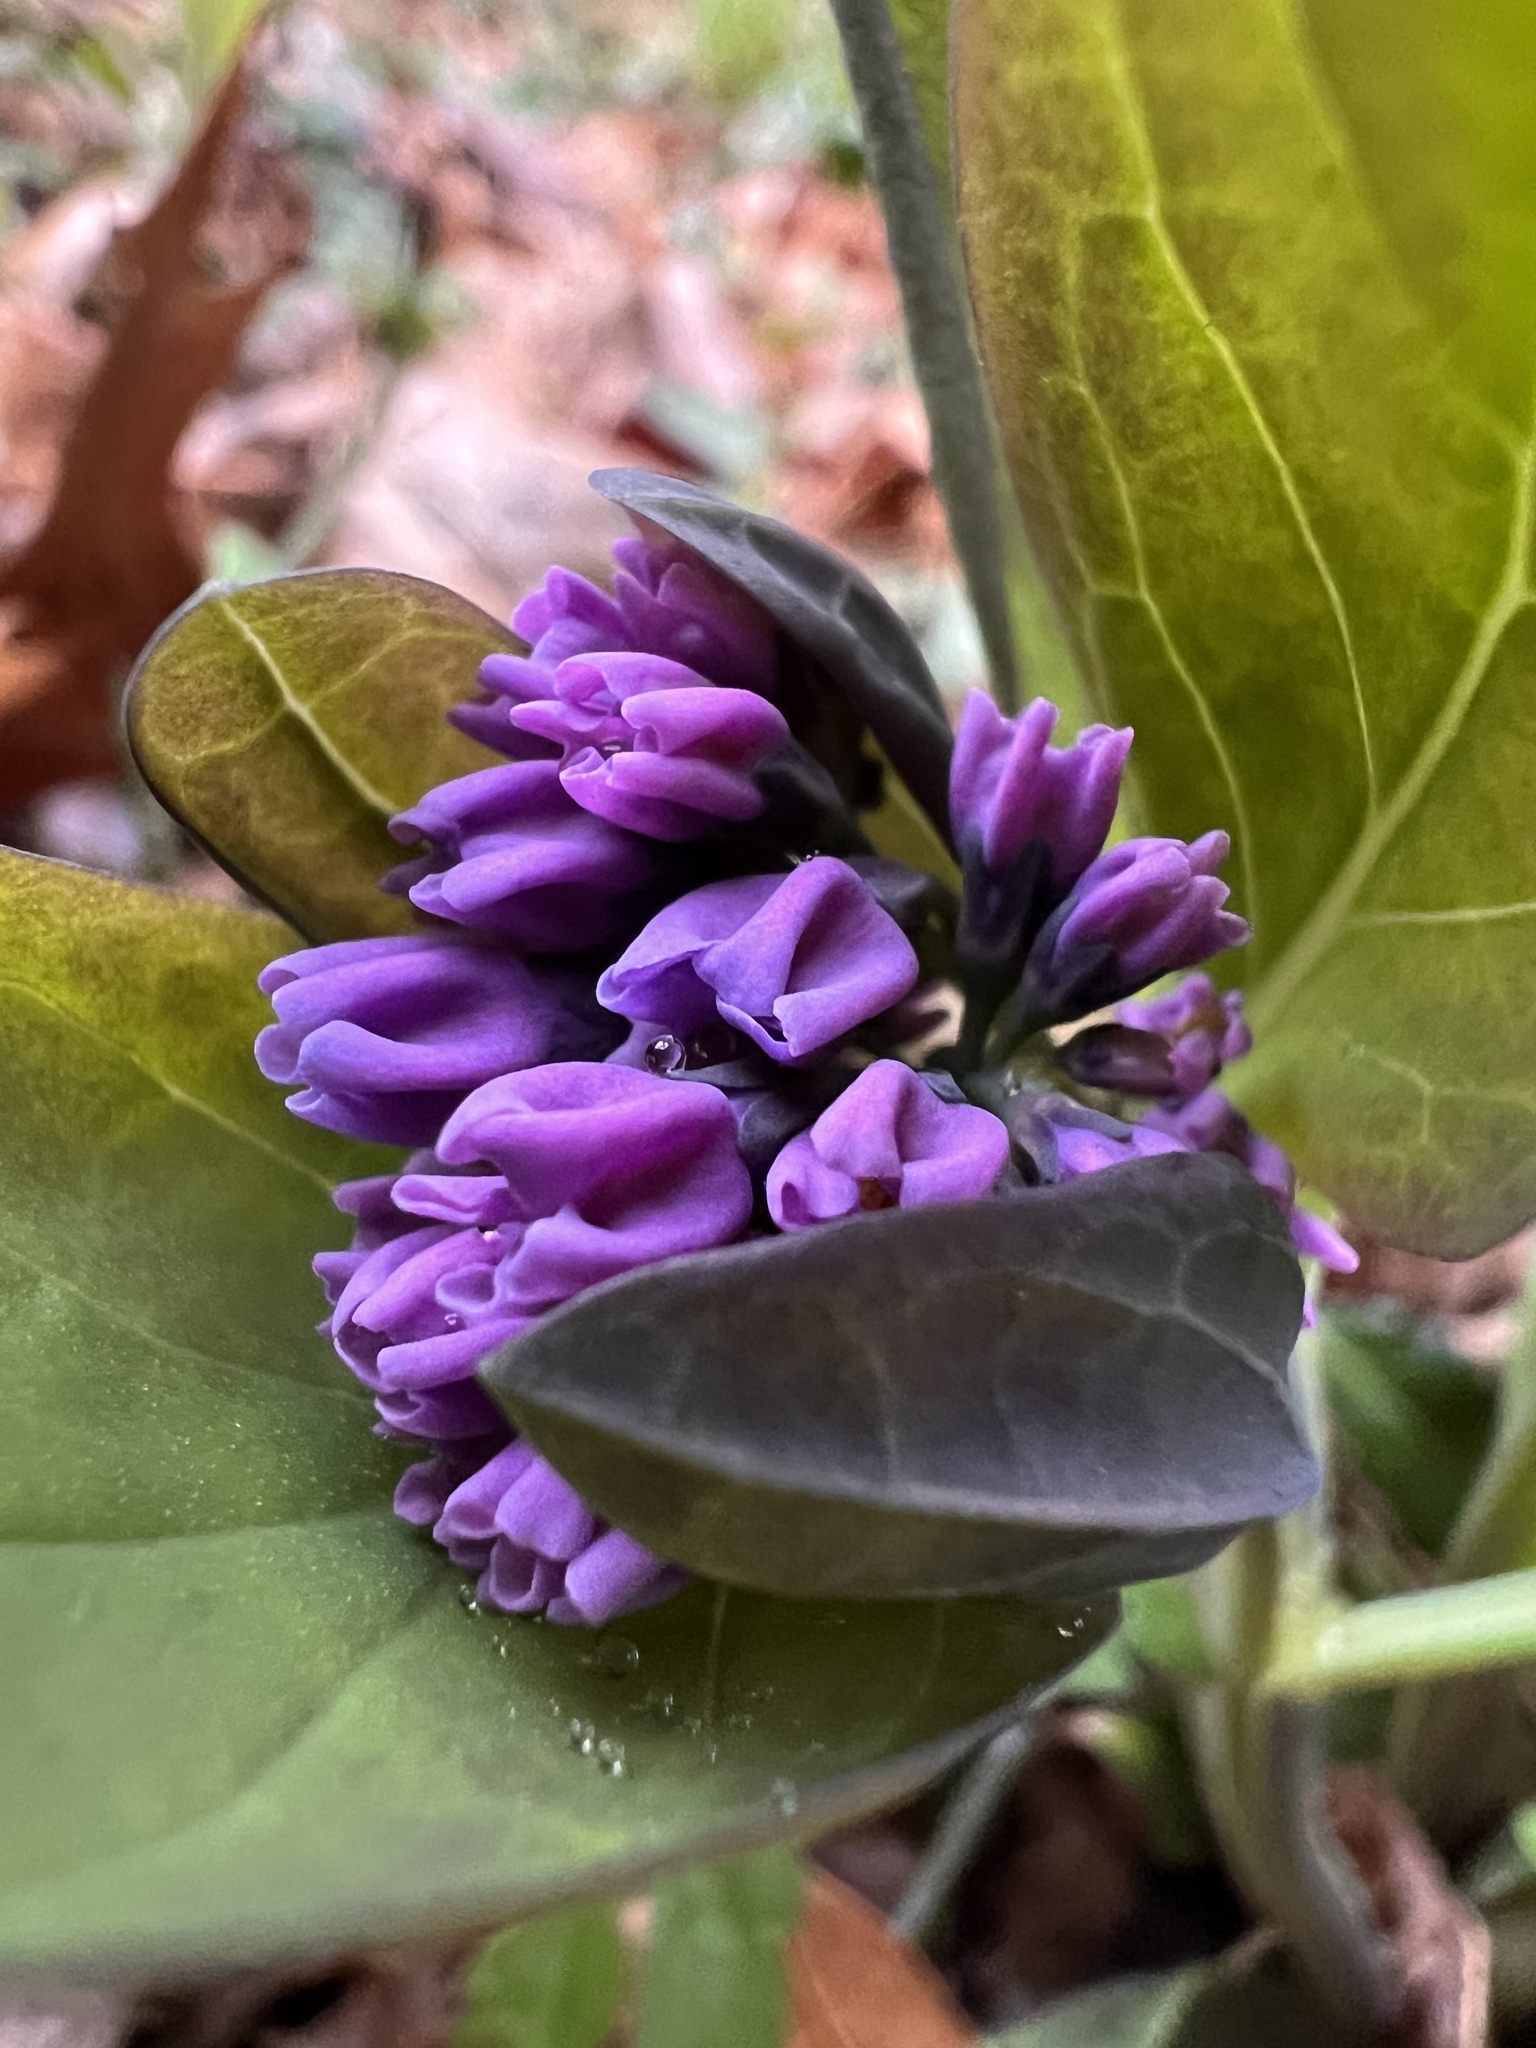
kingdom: Plantae
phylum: Tracheophyta
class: Magnoliopsida
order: Boraginales
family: Boraginaceae
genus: Mertensia
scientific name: Mertensia virginica
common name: Virginia bluebells
